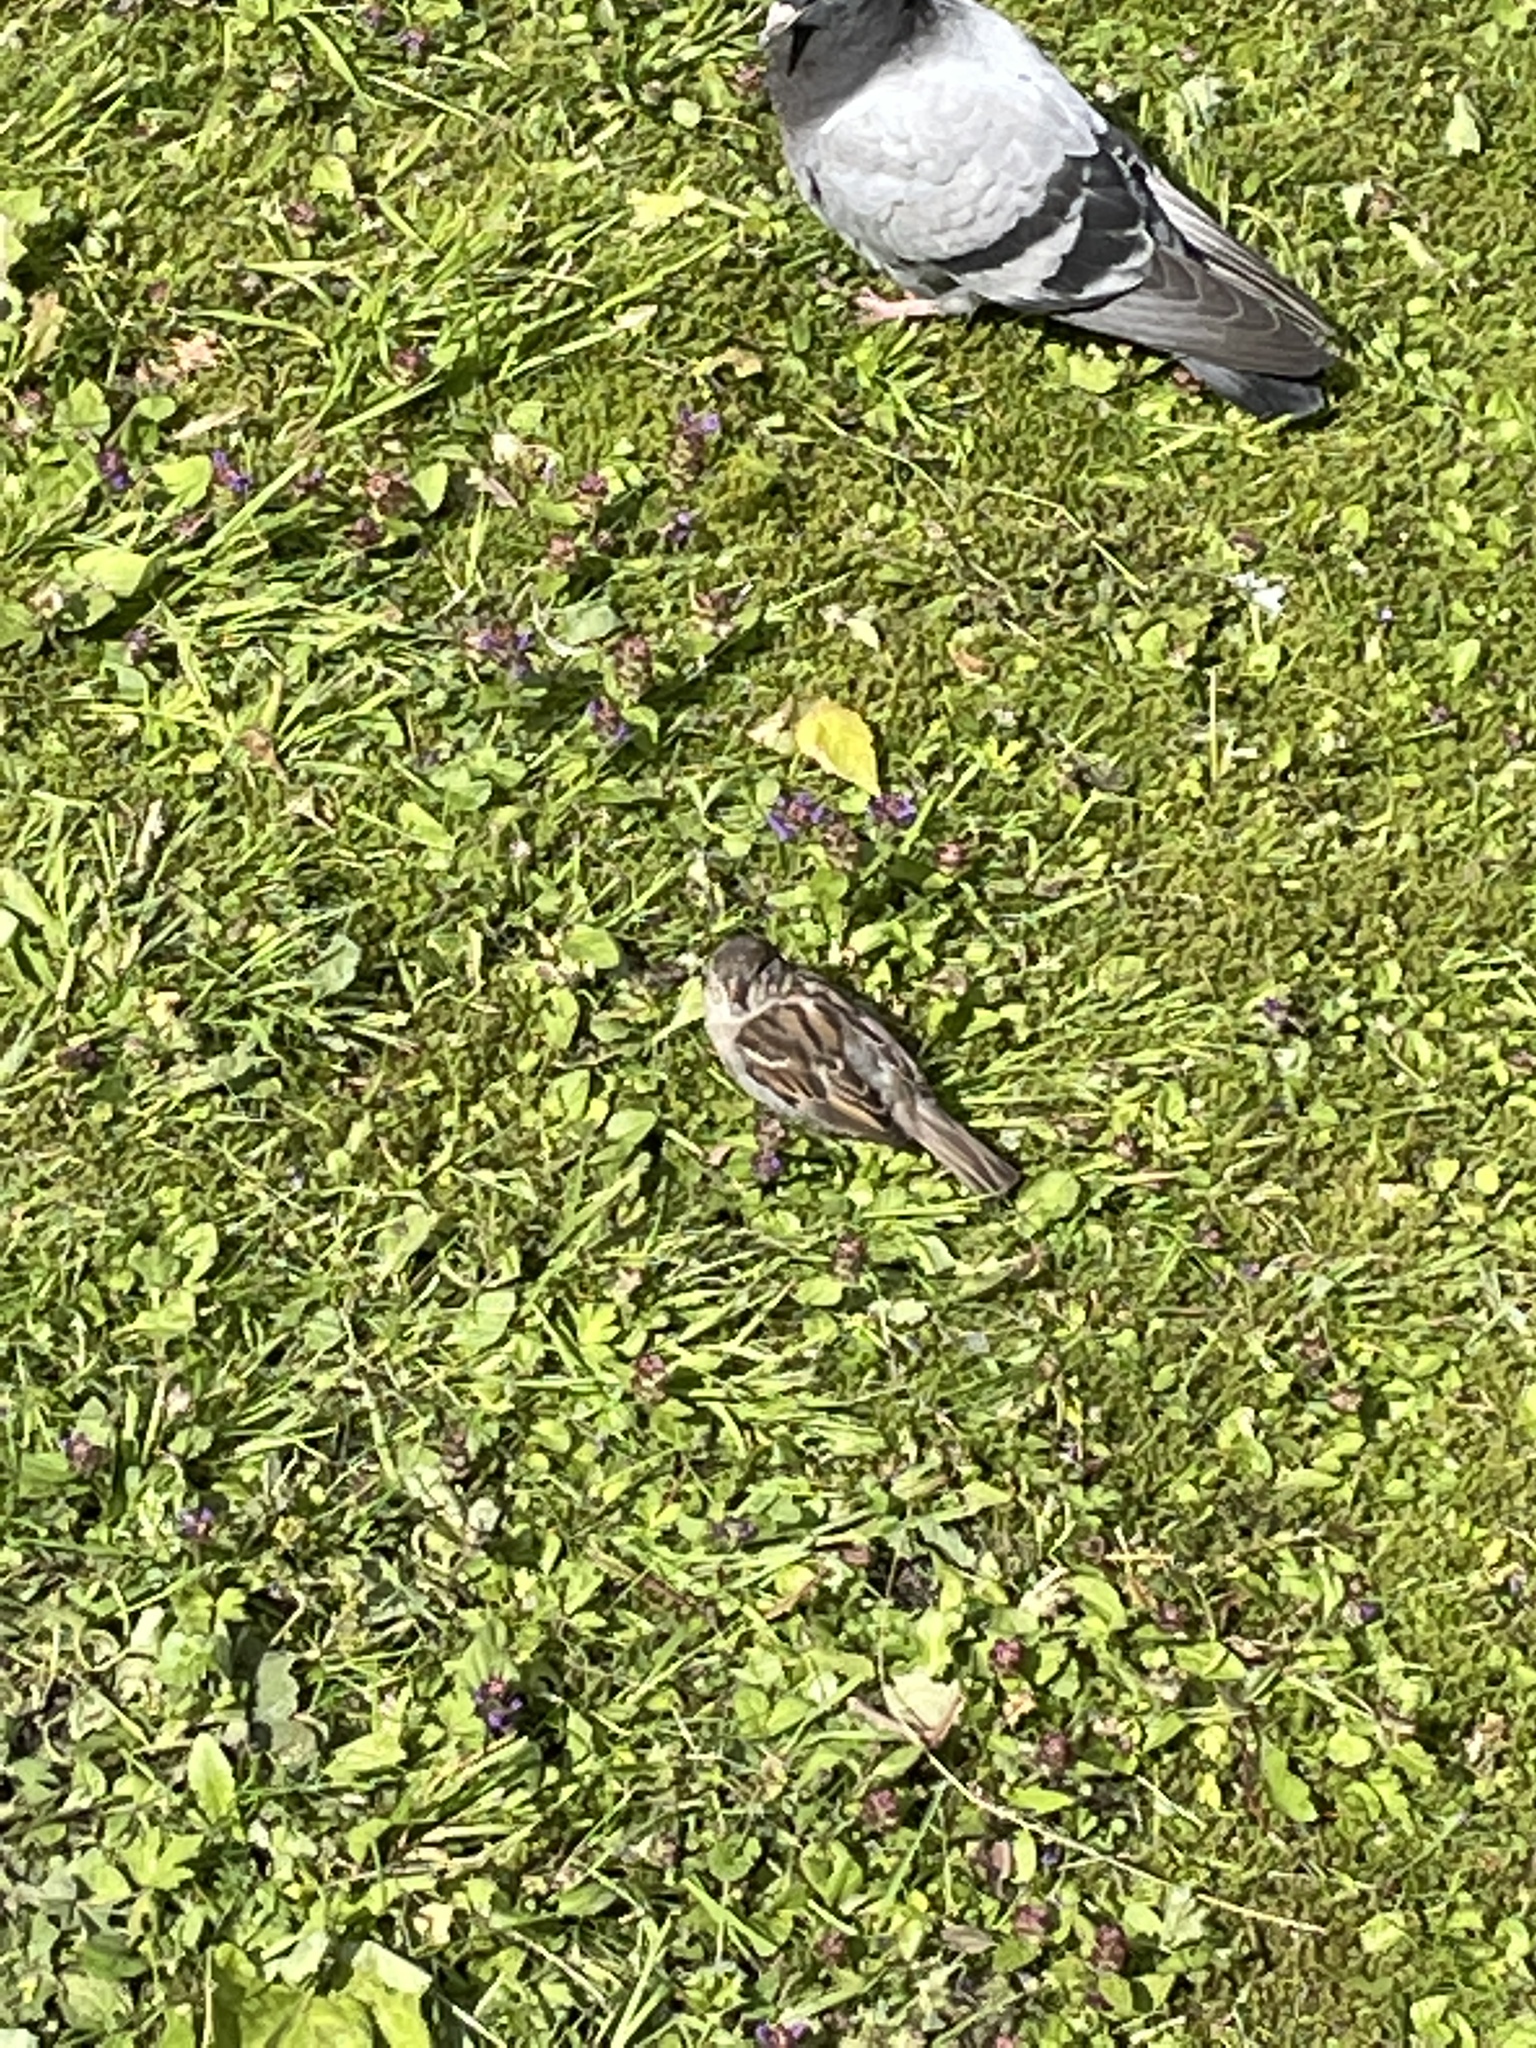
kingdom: Animalia
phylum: Chordata
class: Aves
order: Passeriformes
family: Passeridae
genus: Passer
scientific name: Passer domesticus
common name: House sparrow
